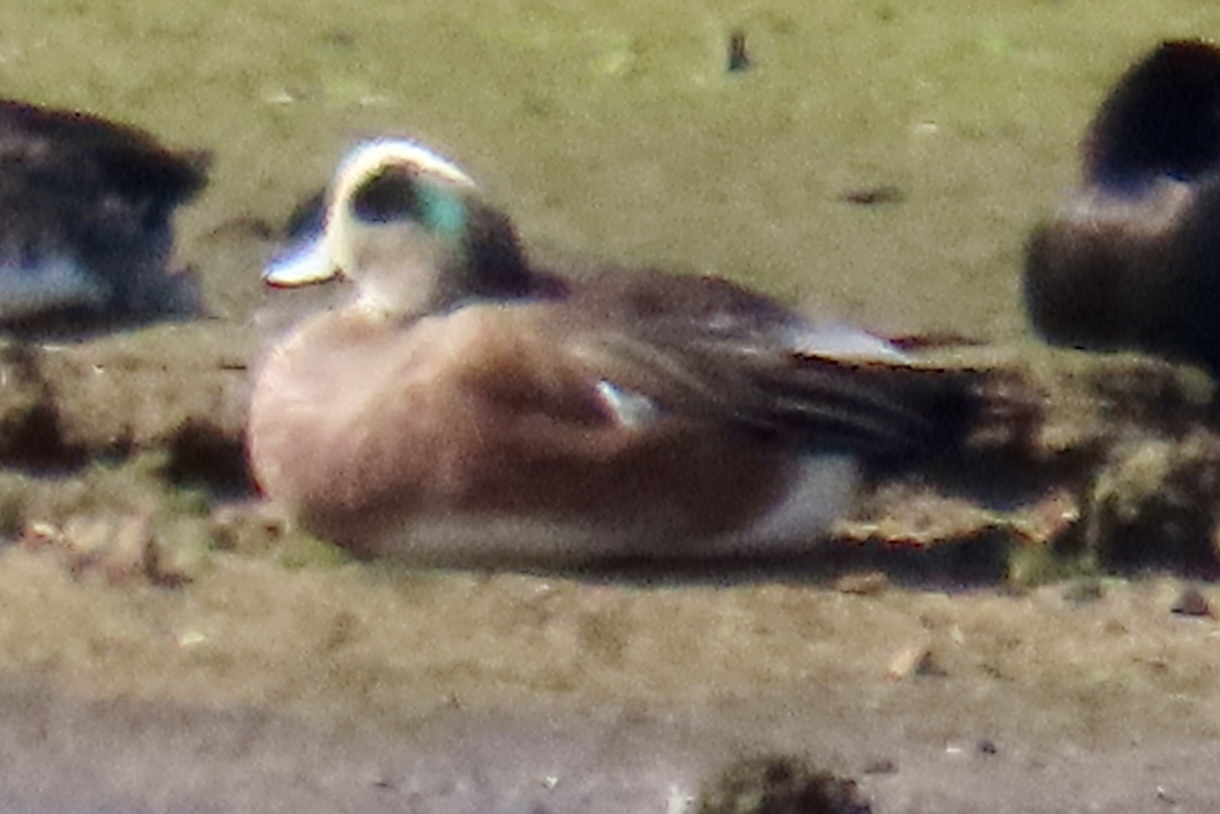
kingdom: Animalia
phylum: Chordata
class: Aves
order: Anseriformes
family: Anatidae
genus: Mareca
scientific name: Mareca americana
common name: American wigeon
